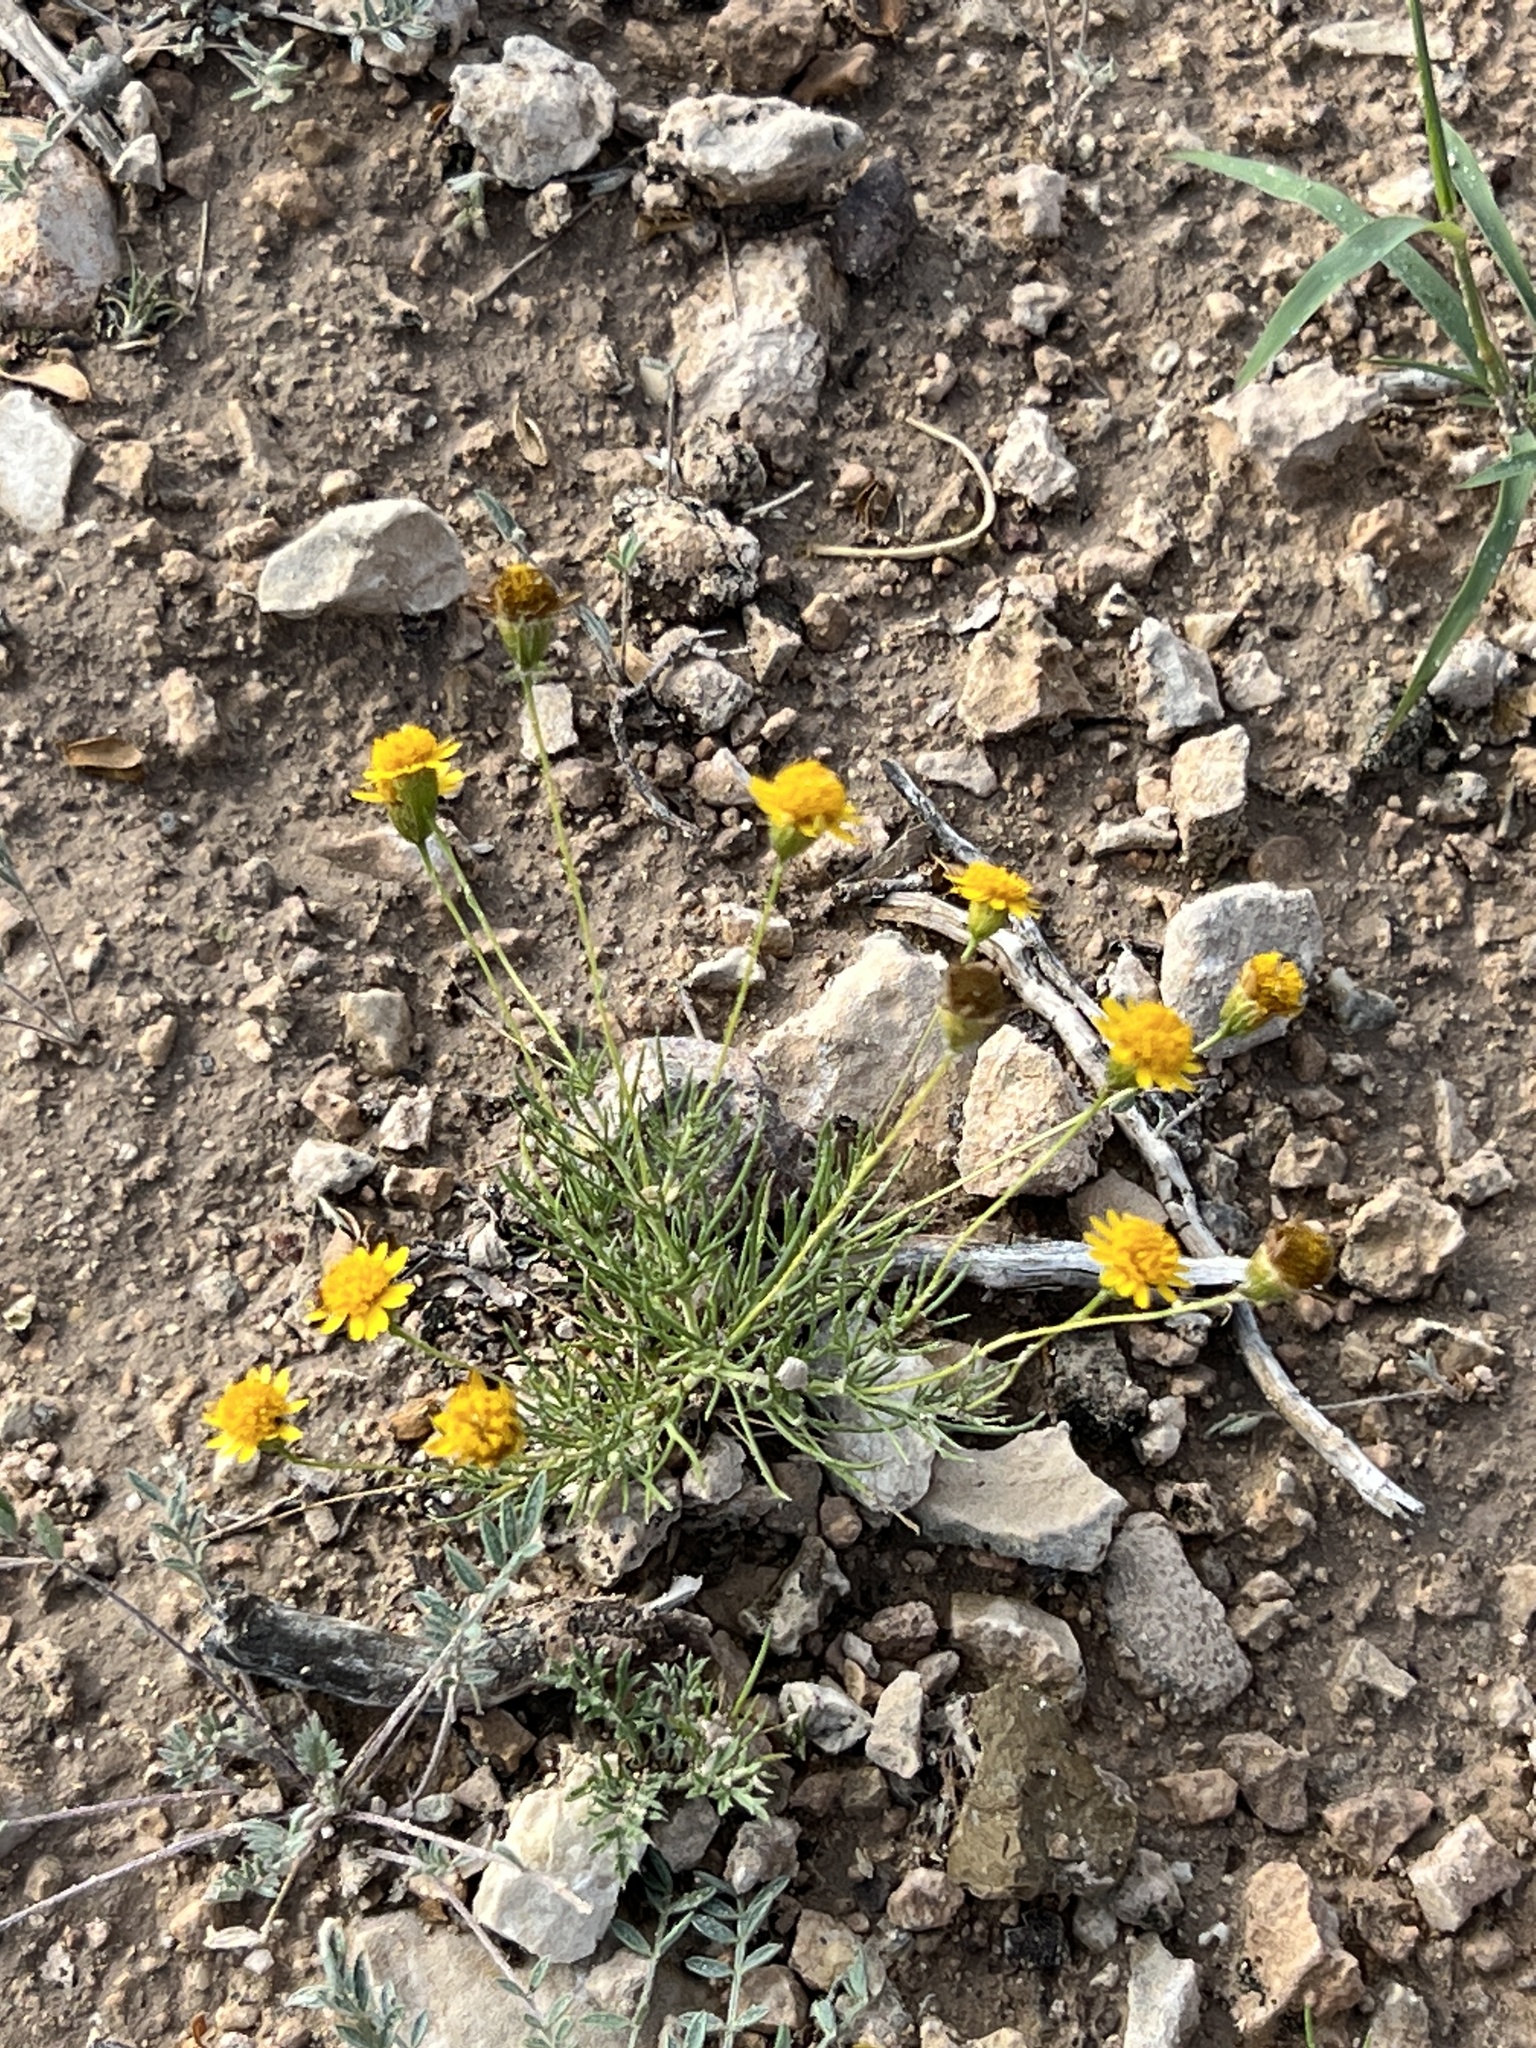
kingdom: Plantae
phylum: Tracheophyta
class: Magnoliopsida
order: Asterales
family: Asteraceae
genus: Thymophylla
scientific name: Thymophylla pentachaeta
